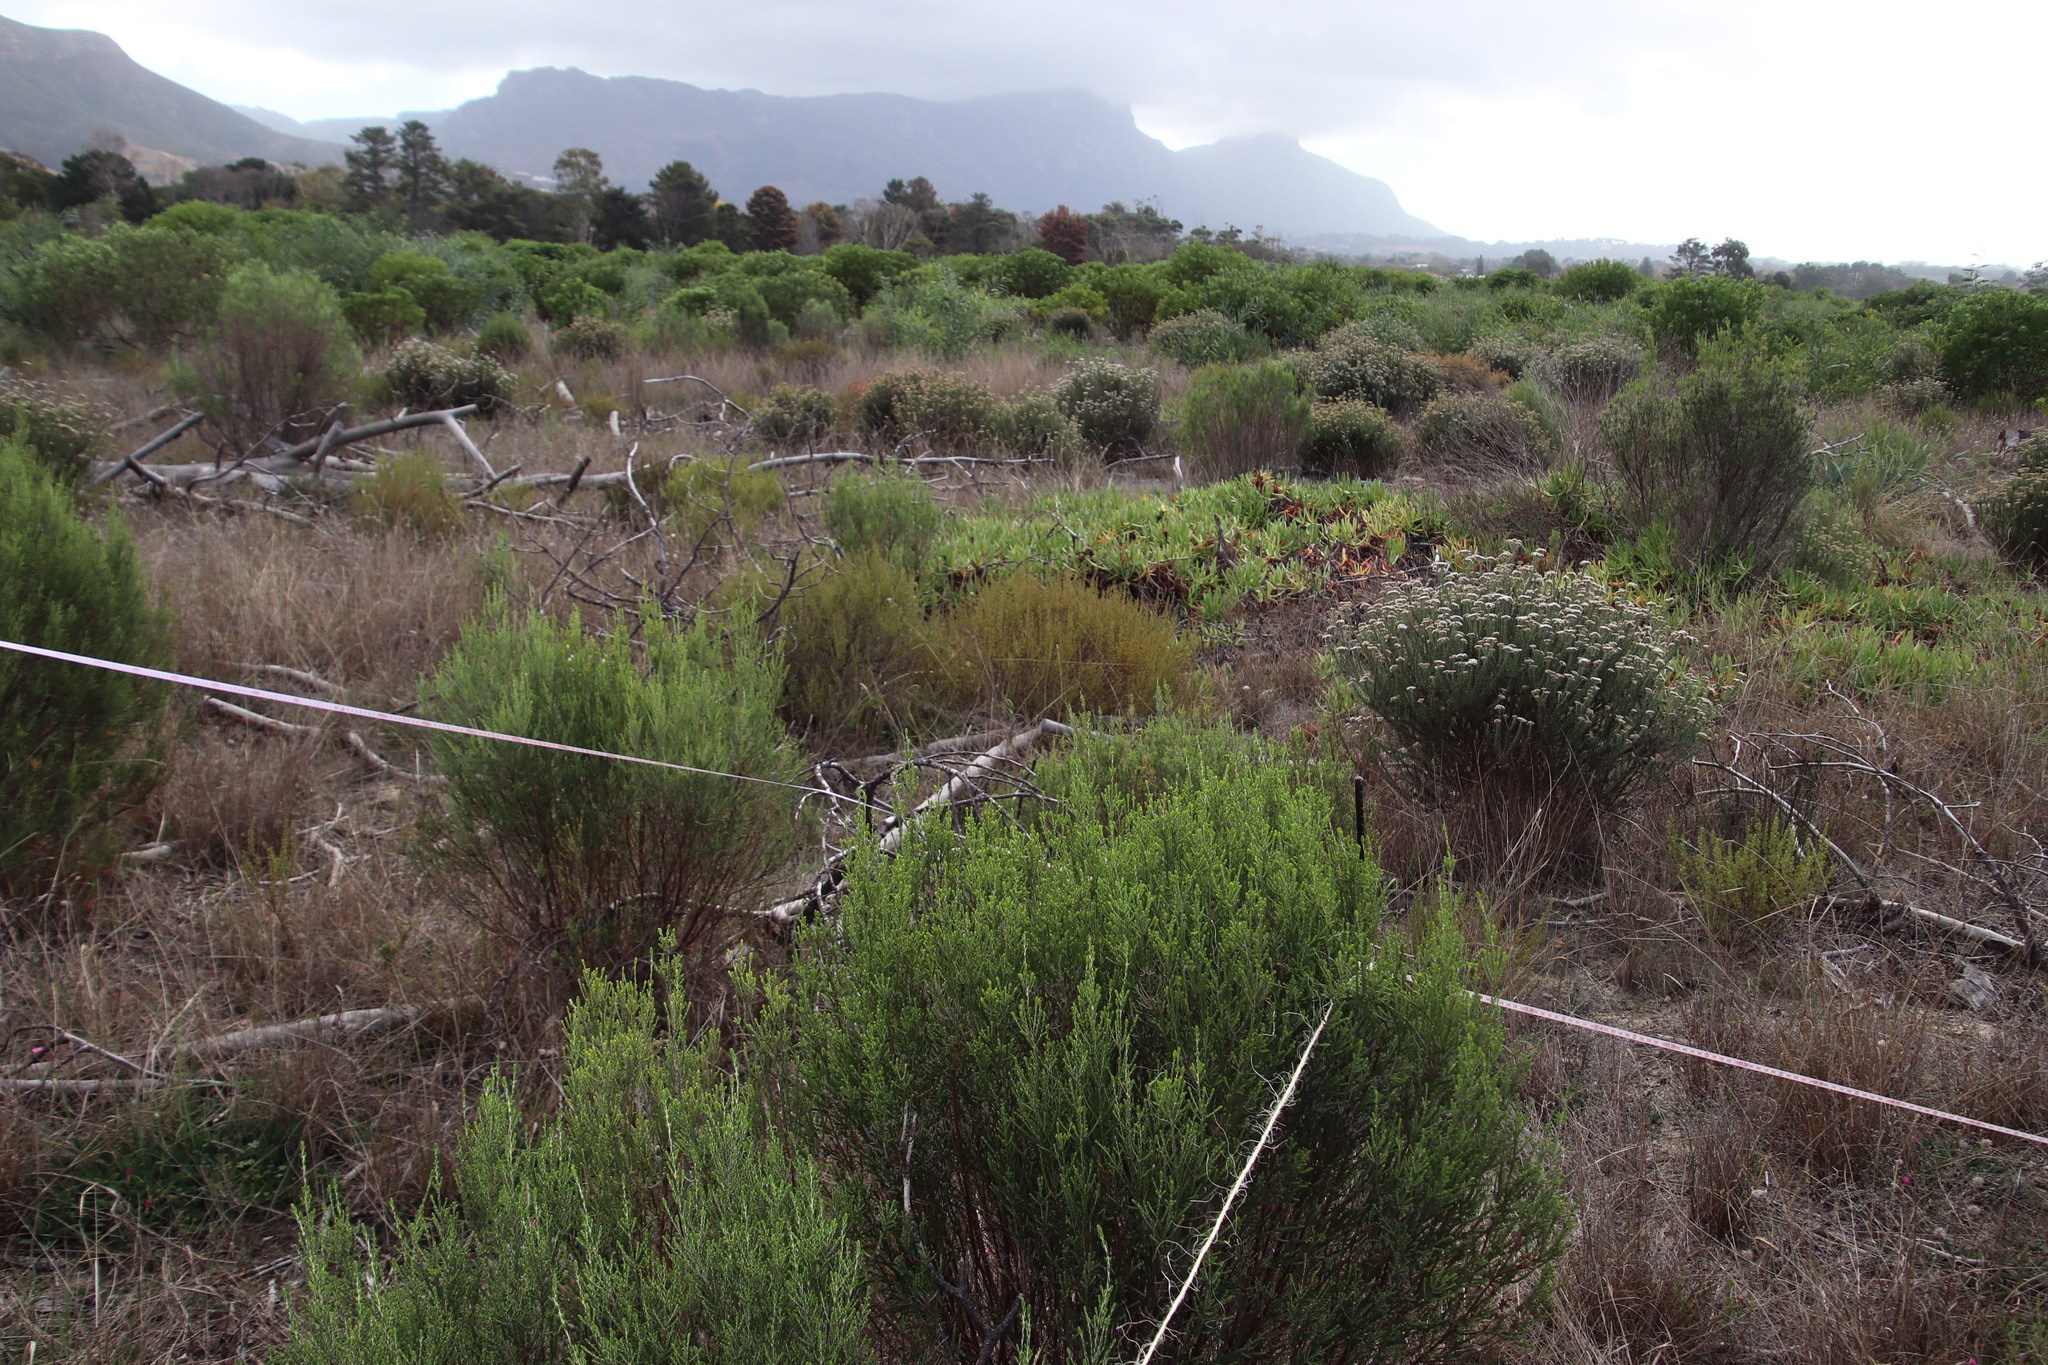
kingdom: Plantae
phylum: Tracheophyta
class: Magnoliopsida
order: Malvales
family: Thymelaeaceae
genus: Passerina
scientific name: Passerina corymbosa
